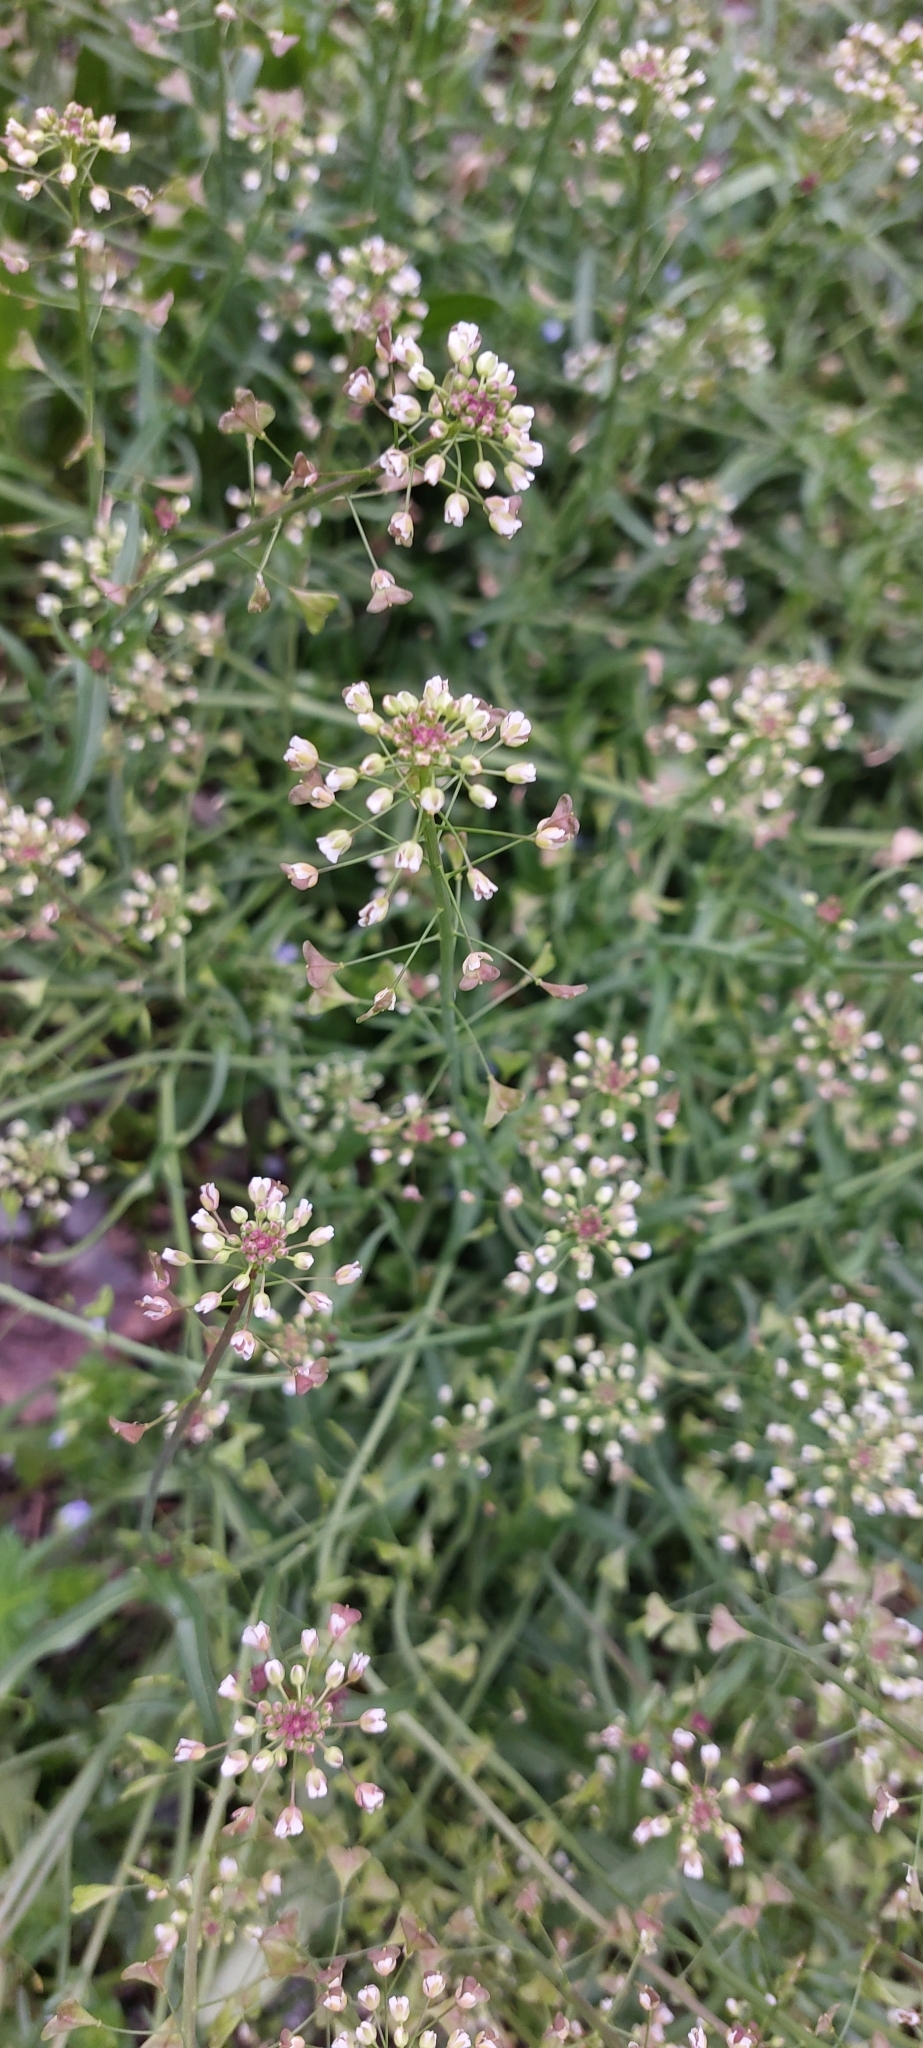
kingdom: Plantae
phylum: Tracheophyta
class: Magnoliopsida
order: Brassicales
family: Brassicaceae
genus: Capsella
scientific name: Capsella bursa-pastoris
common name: Shepherd's purse
